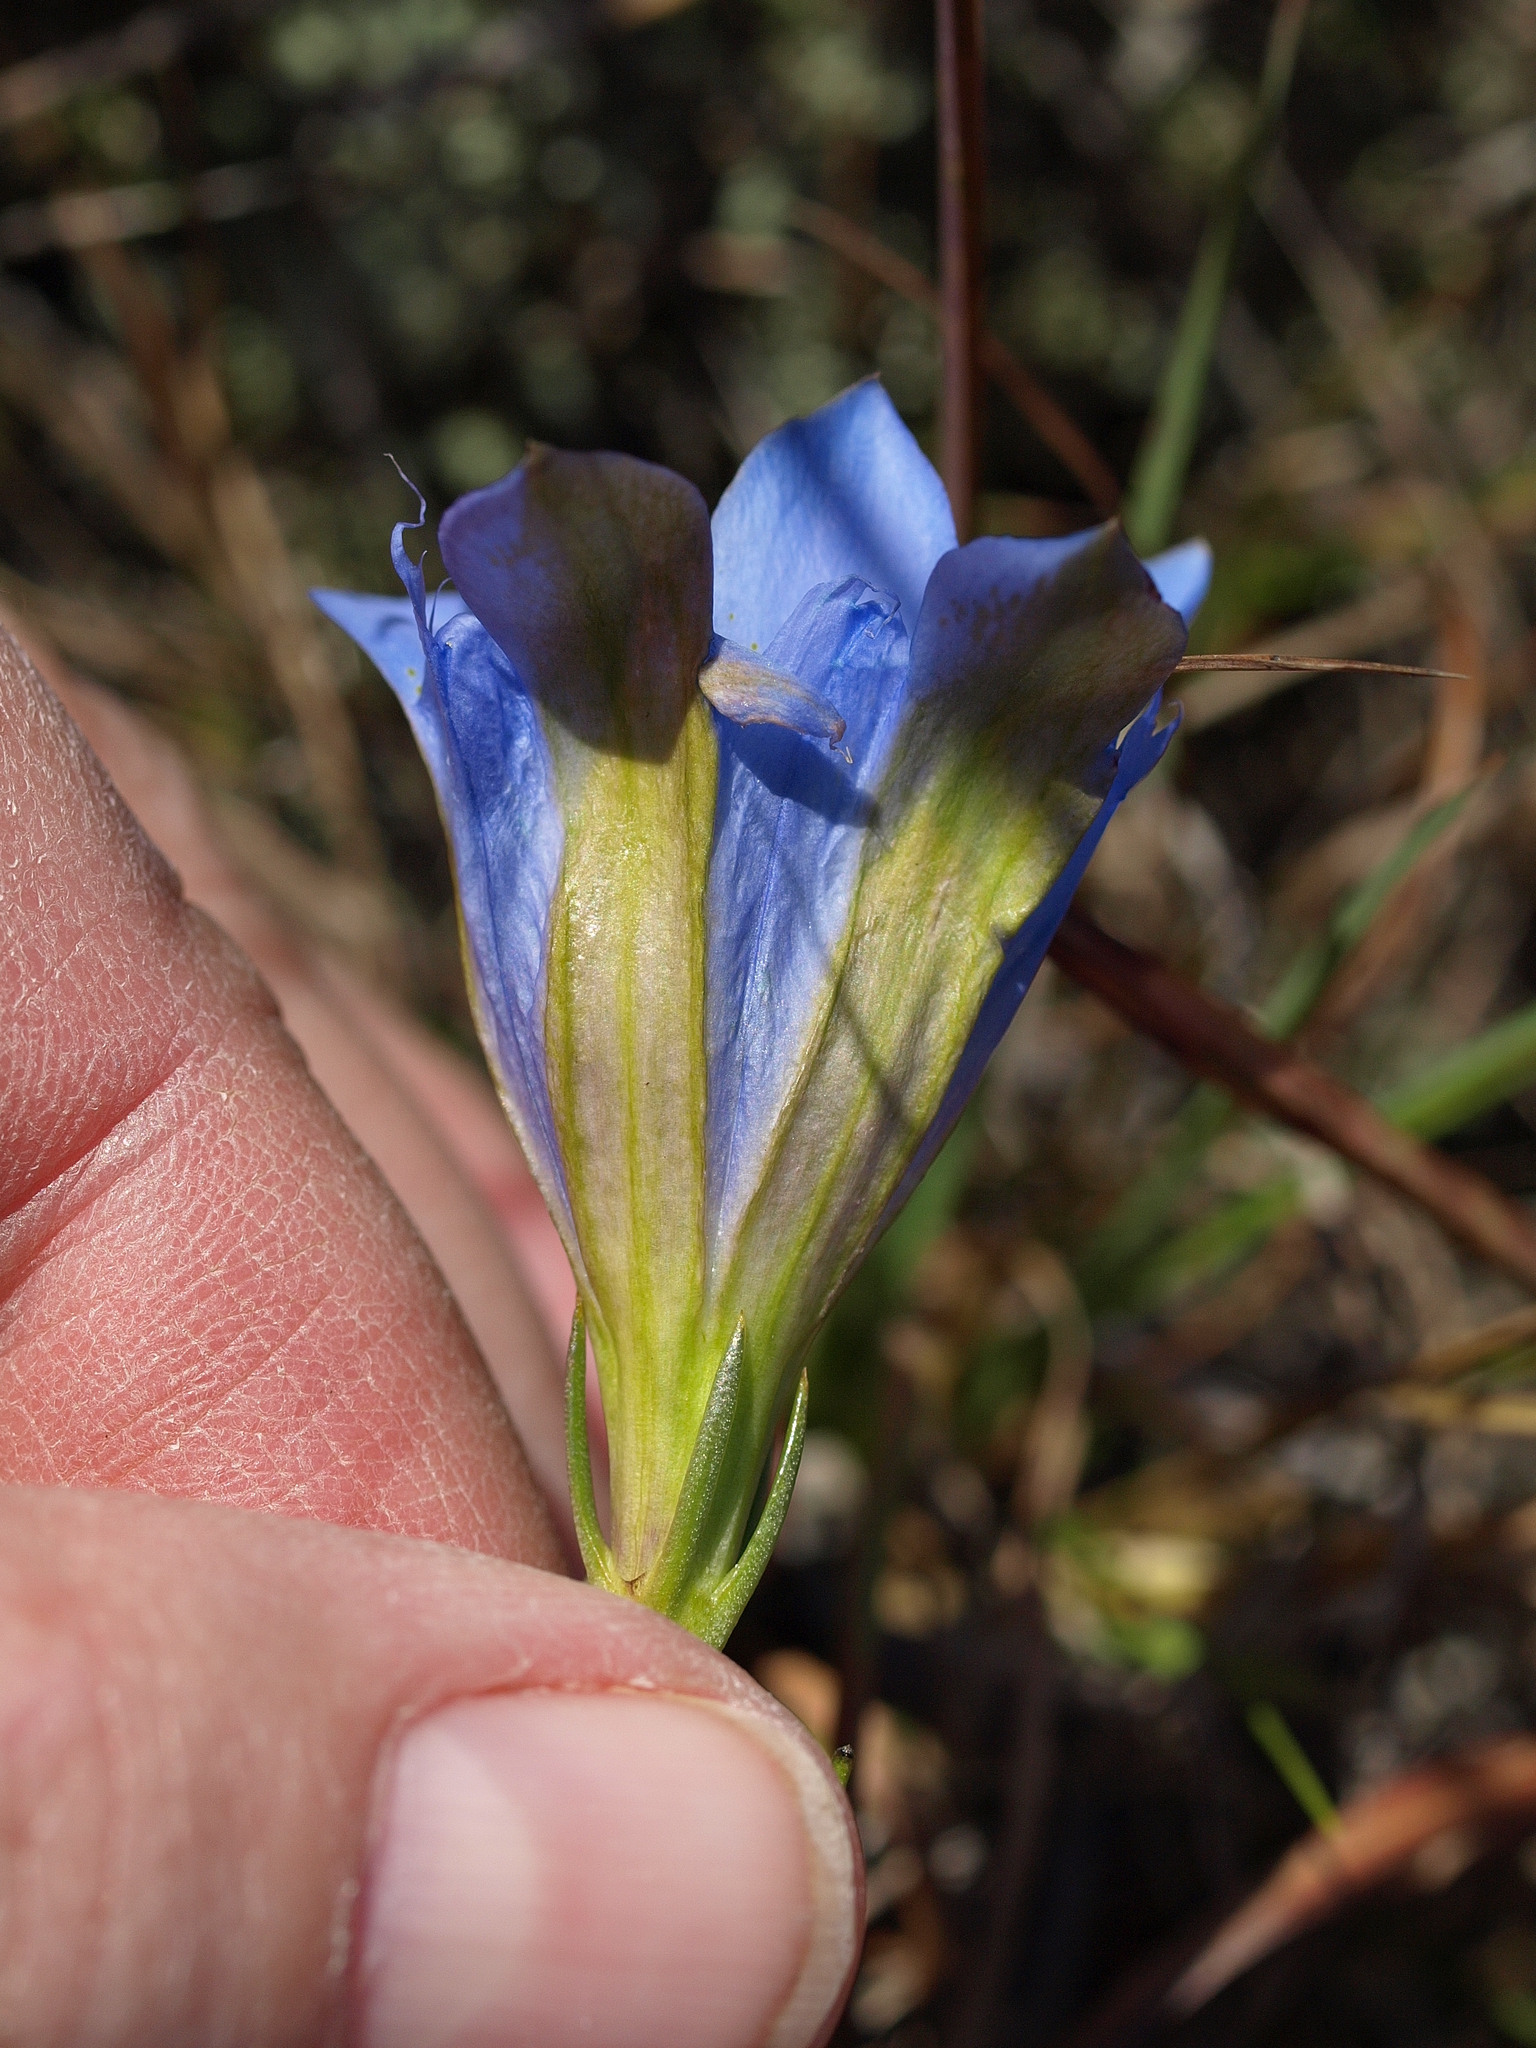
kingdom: Plantae
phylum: Tracheophyta
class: Magnoliopsida
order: Gentianales
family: Gentianaceae
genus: Gentiana
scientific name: Gentiana autumnalis
